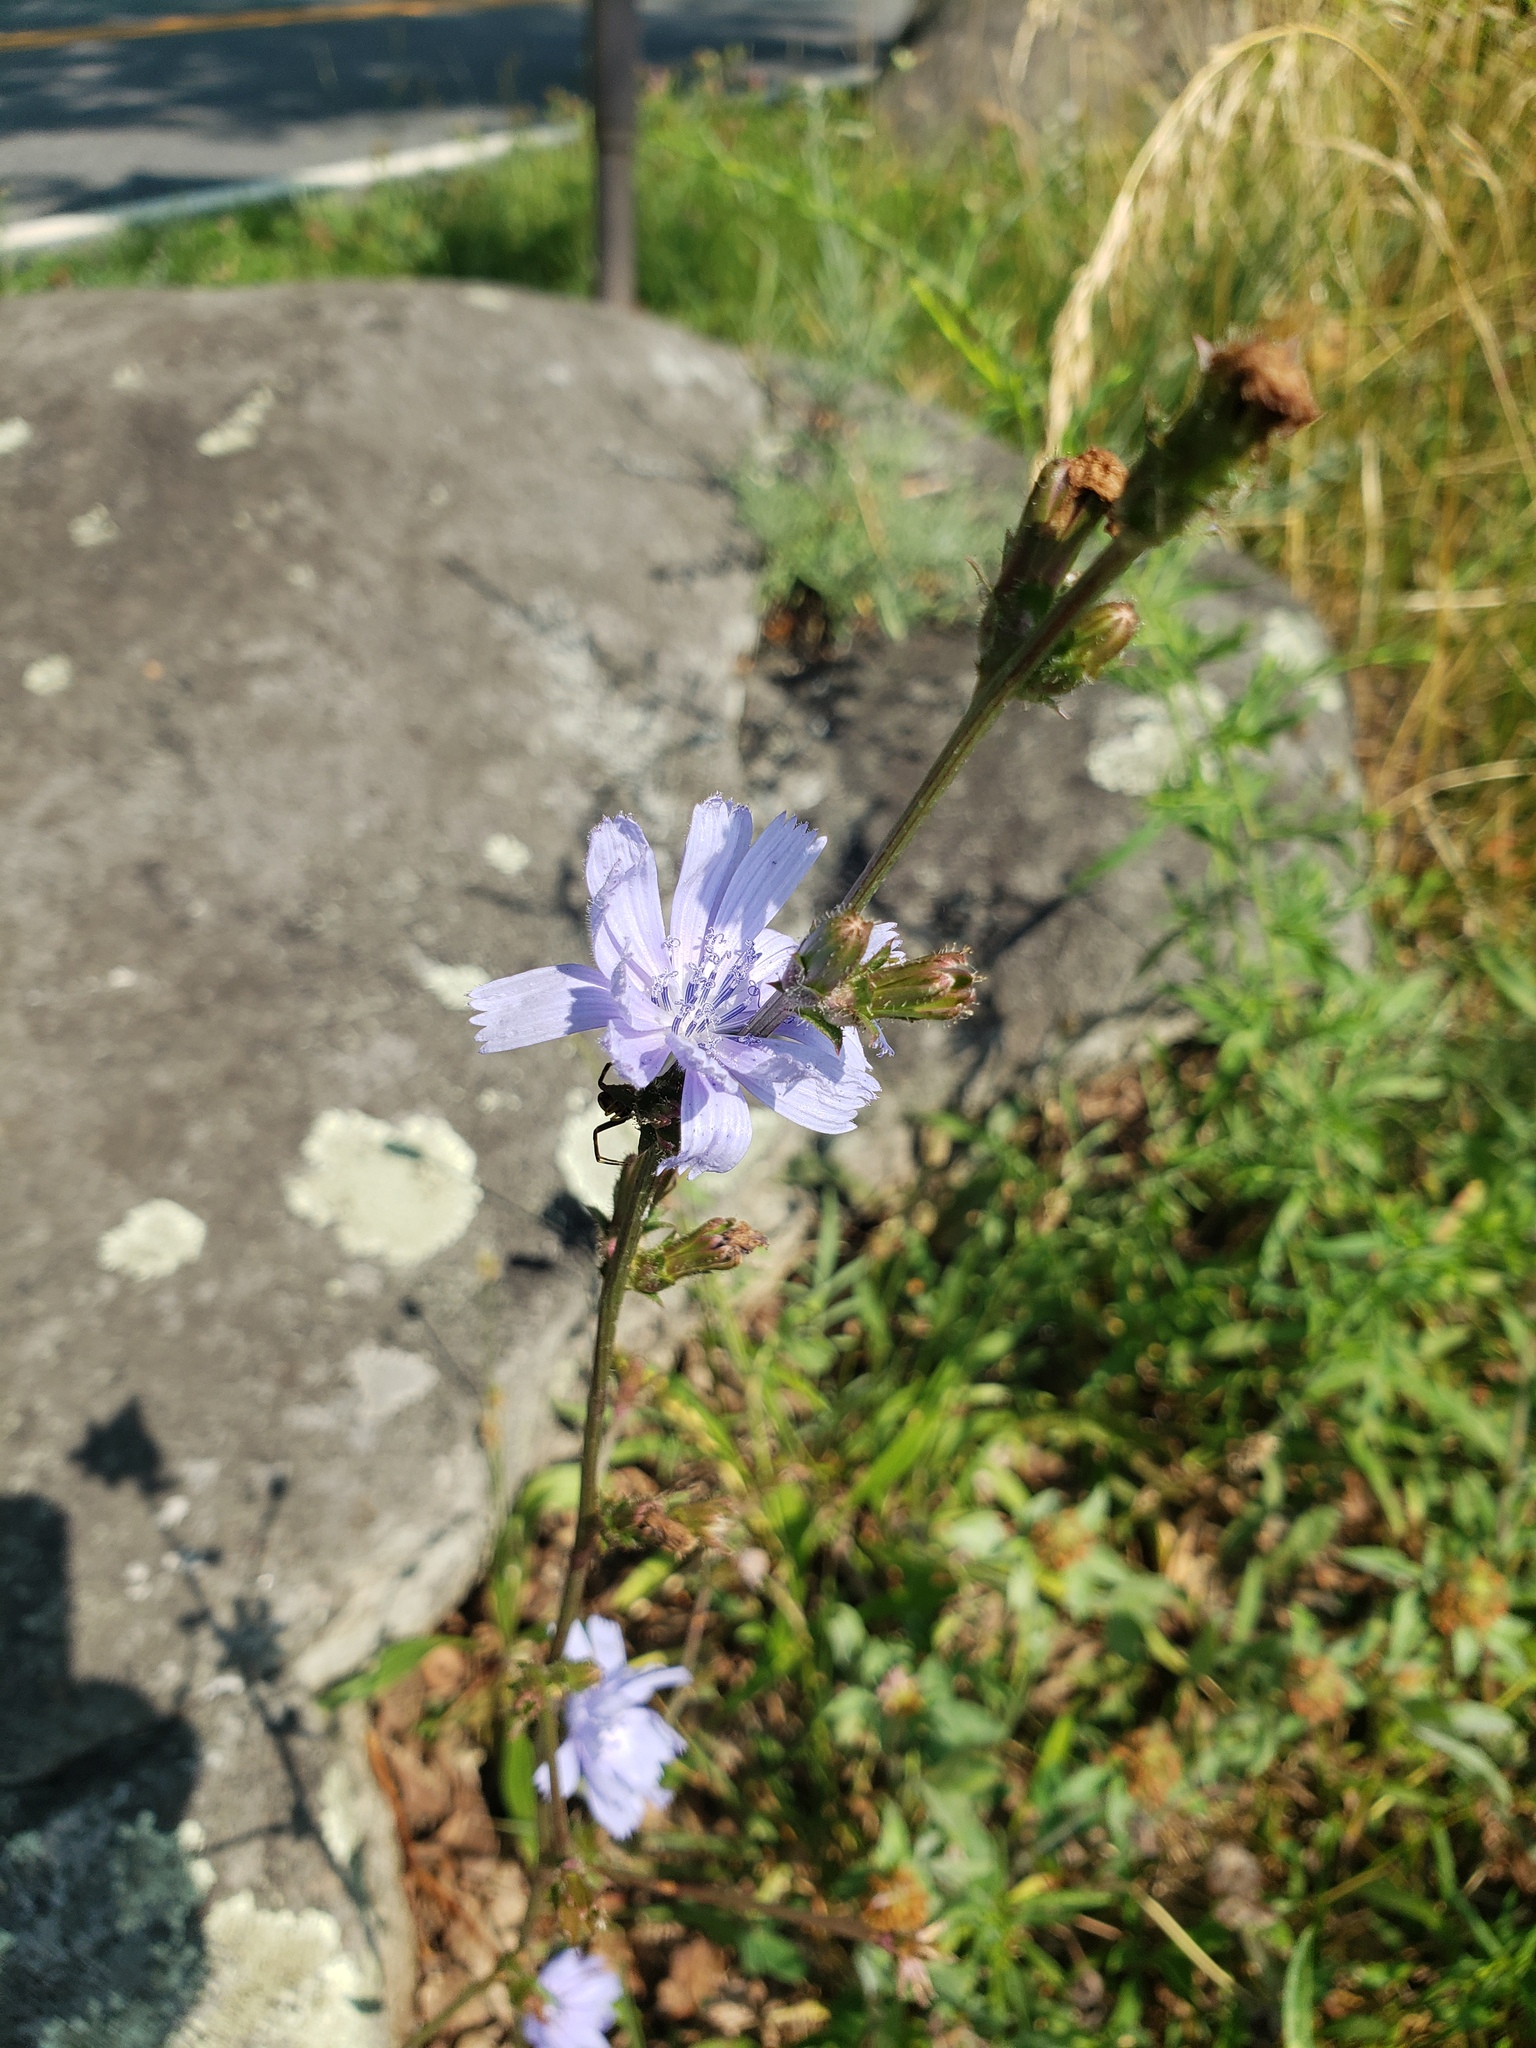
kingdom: Plantae
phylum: Tracheophyta
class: Magnoliopsida
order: Asterales
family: Asteraceae
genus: Cichorium
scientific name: Cichorium intybus
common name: Chicory
